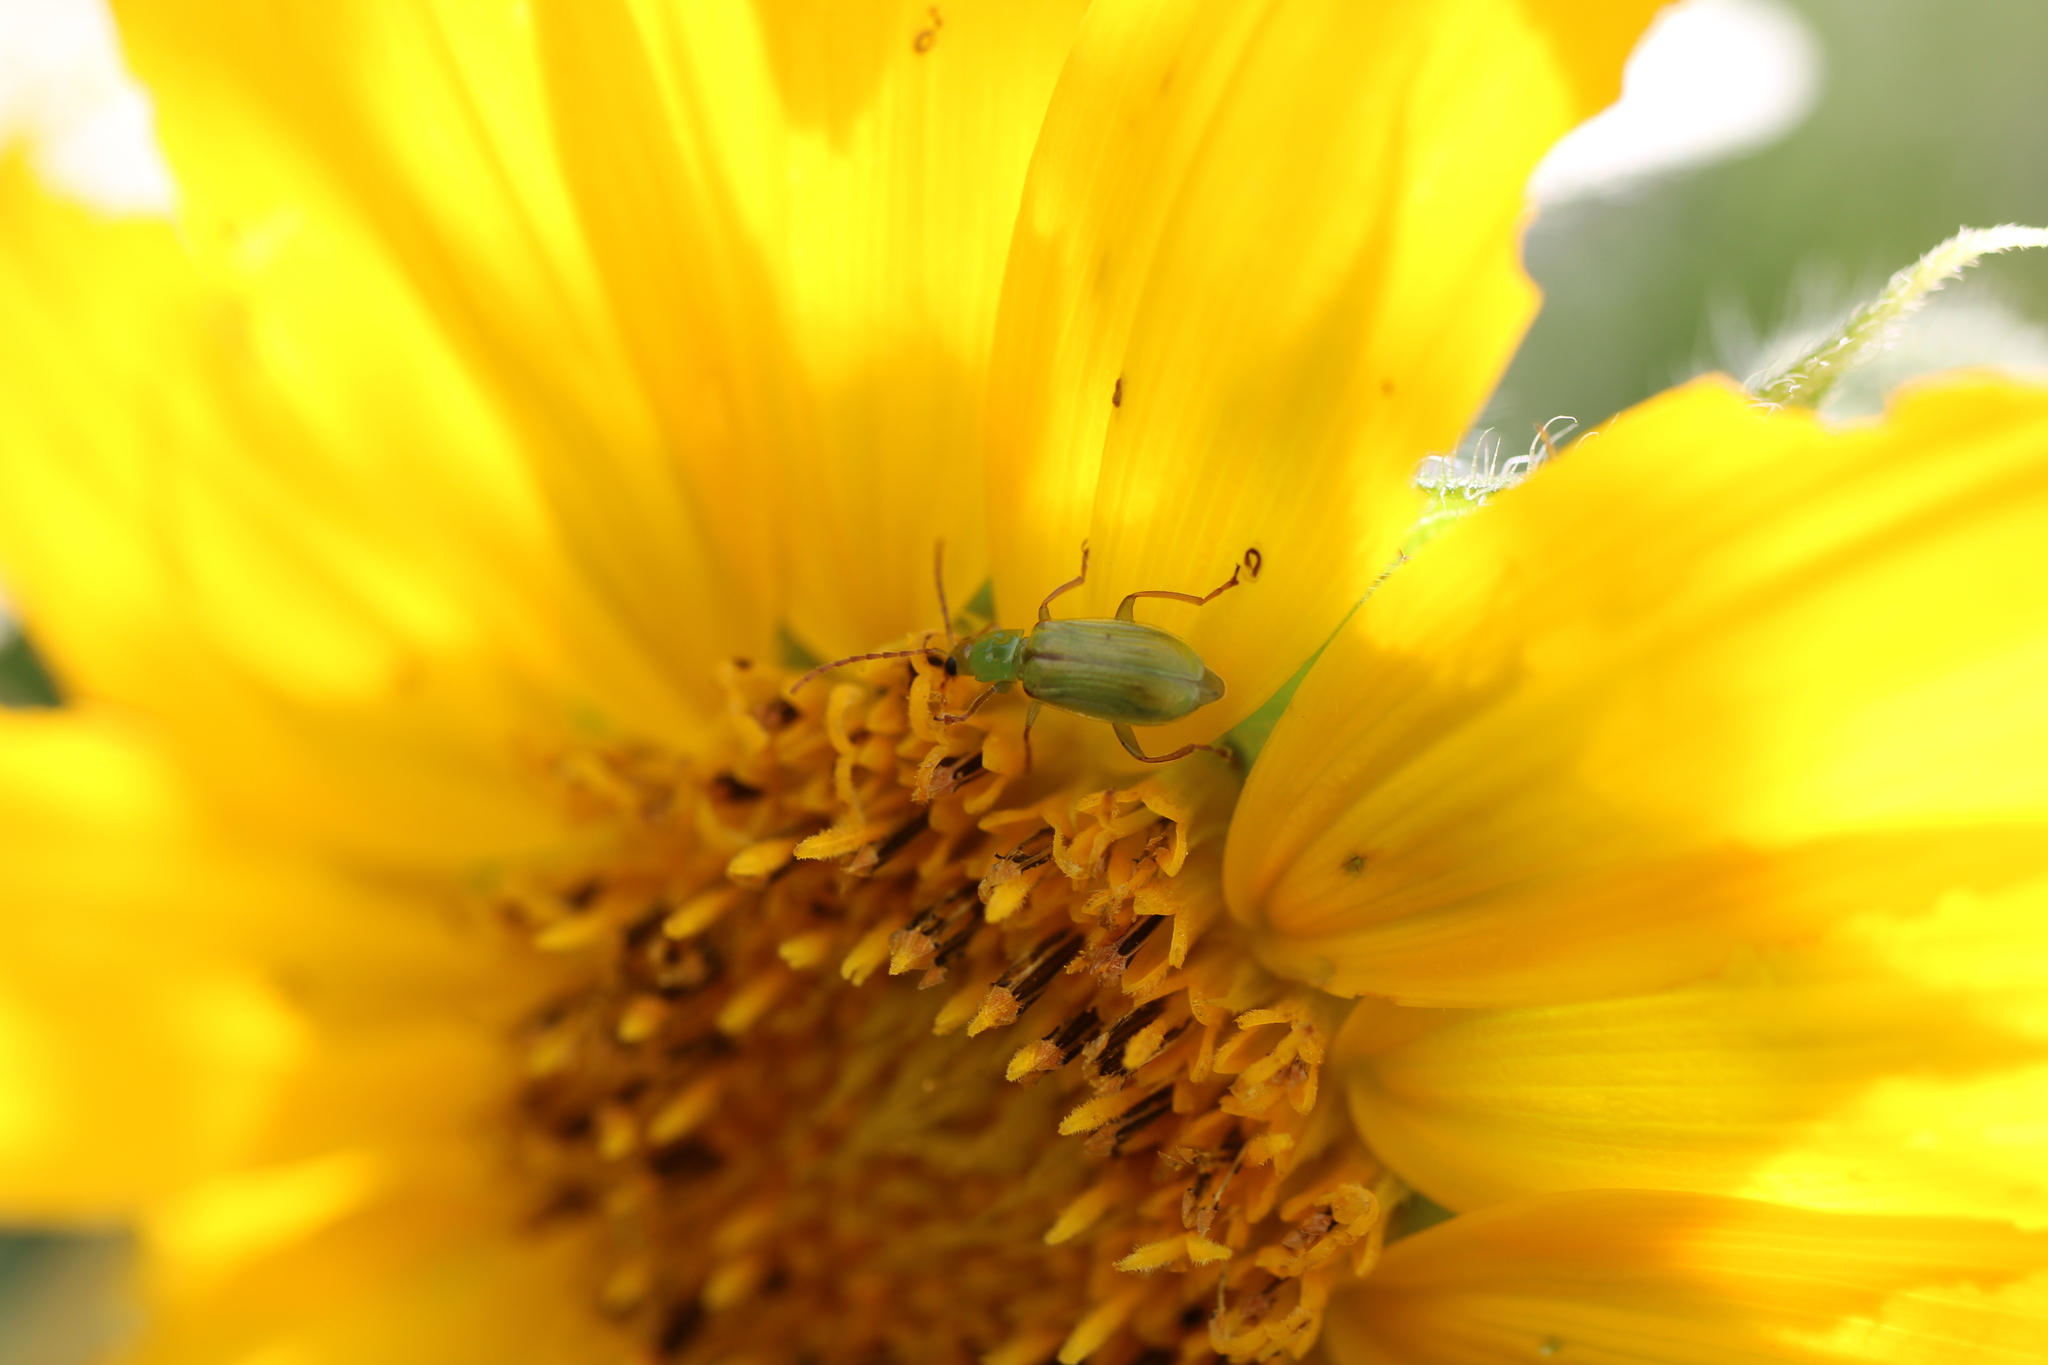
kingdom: Animalia
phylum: Arthropoda
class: Insecta
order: Coleoptera
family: Chrysomelidae
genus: Diabrotica
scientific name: Diabrotica barberi
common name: Northern corn rootworm
